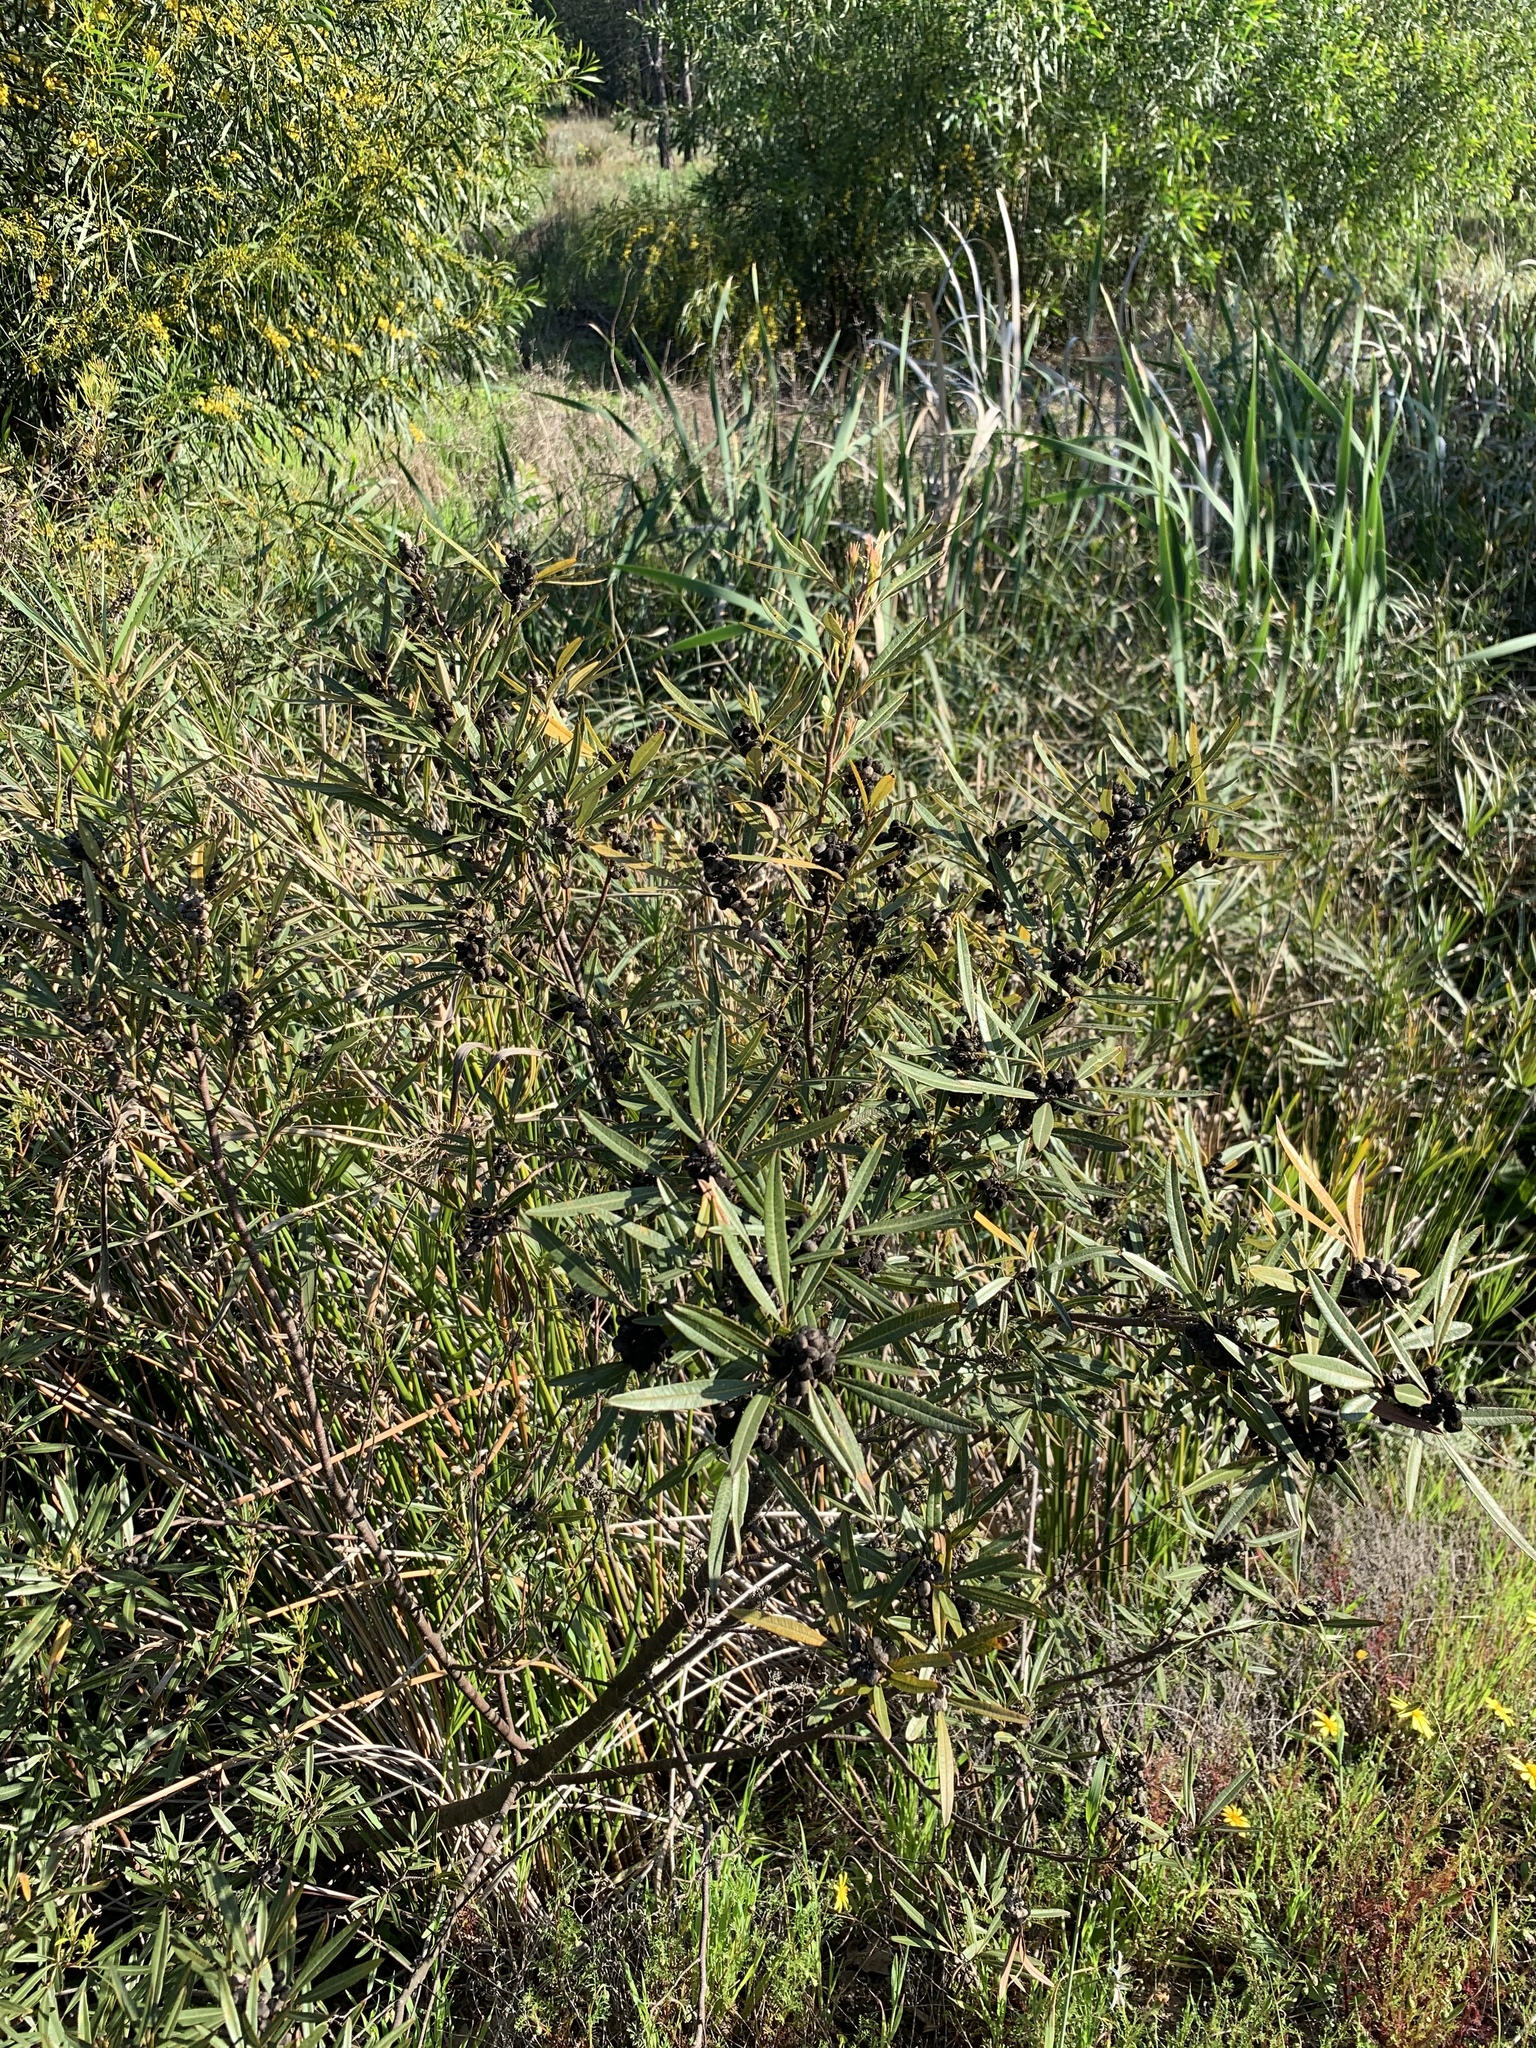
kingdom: Plantae
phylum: Tracheophyta
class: Magnoliopsida
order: Sapindales
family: Anacardiaceae
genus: Searsia
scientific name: Searsia angustifolia
